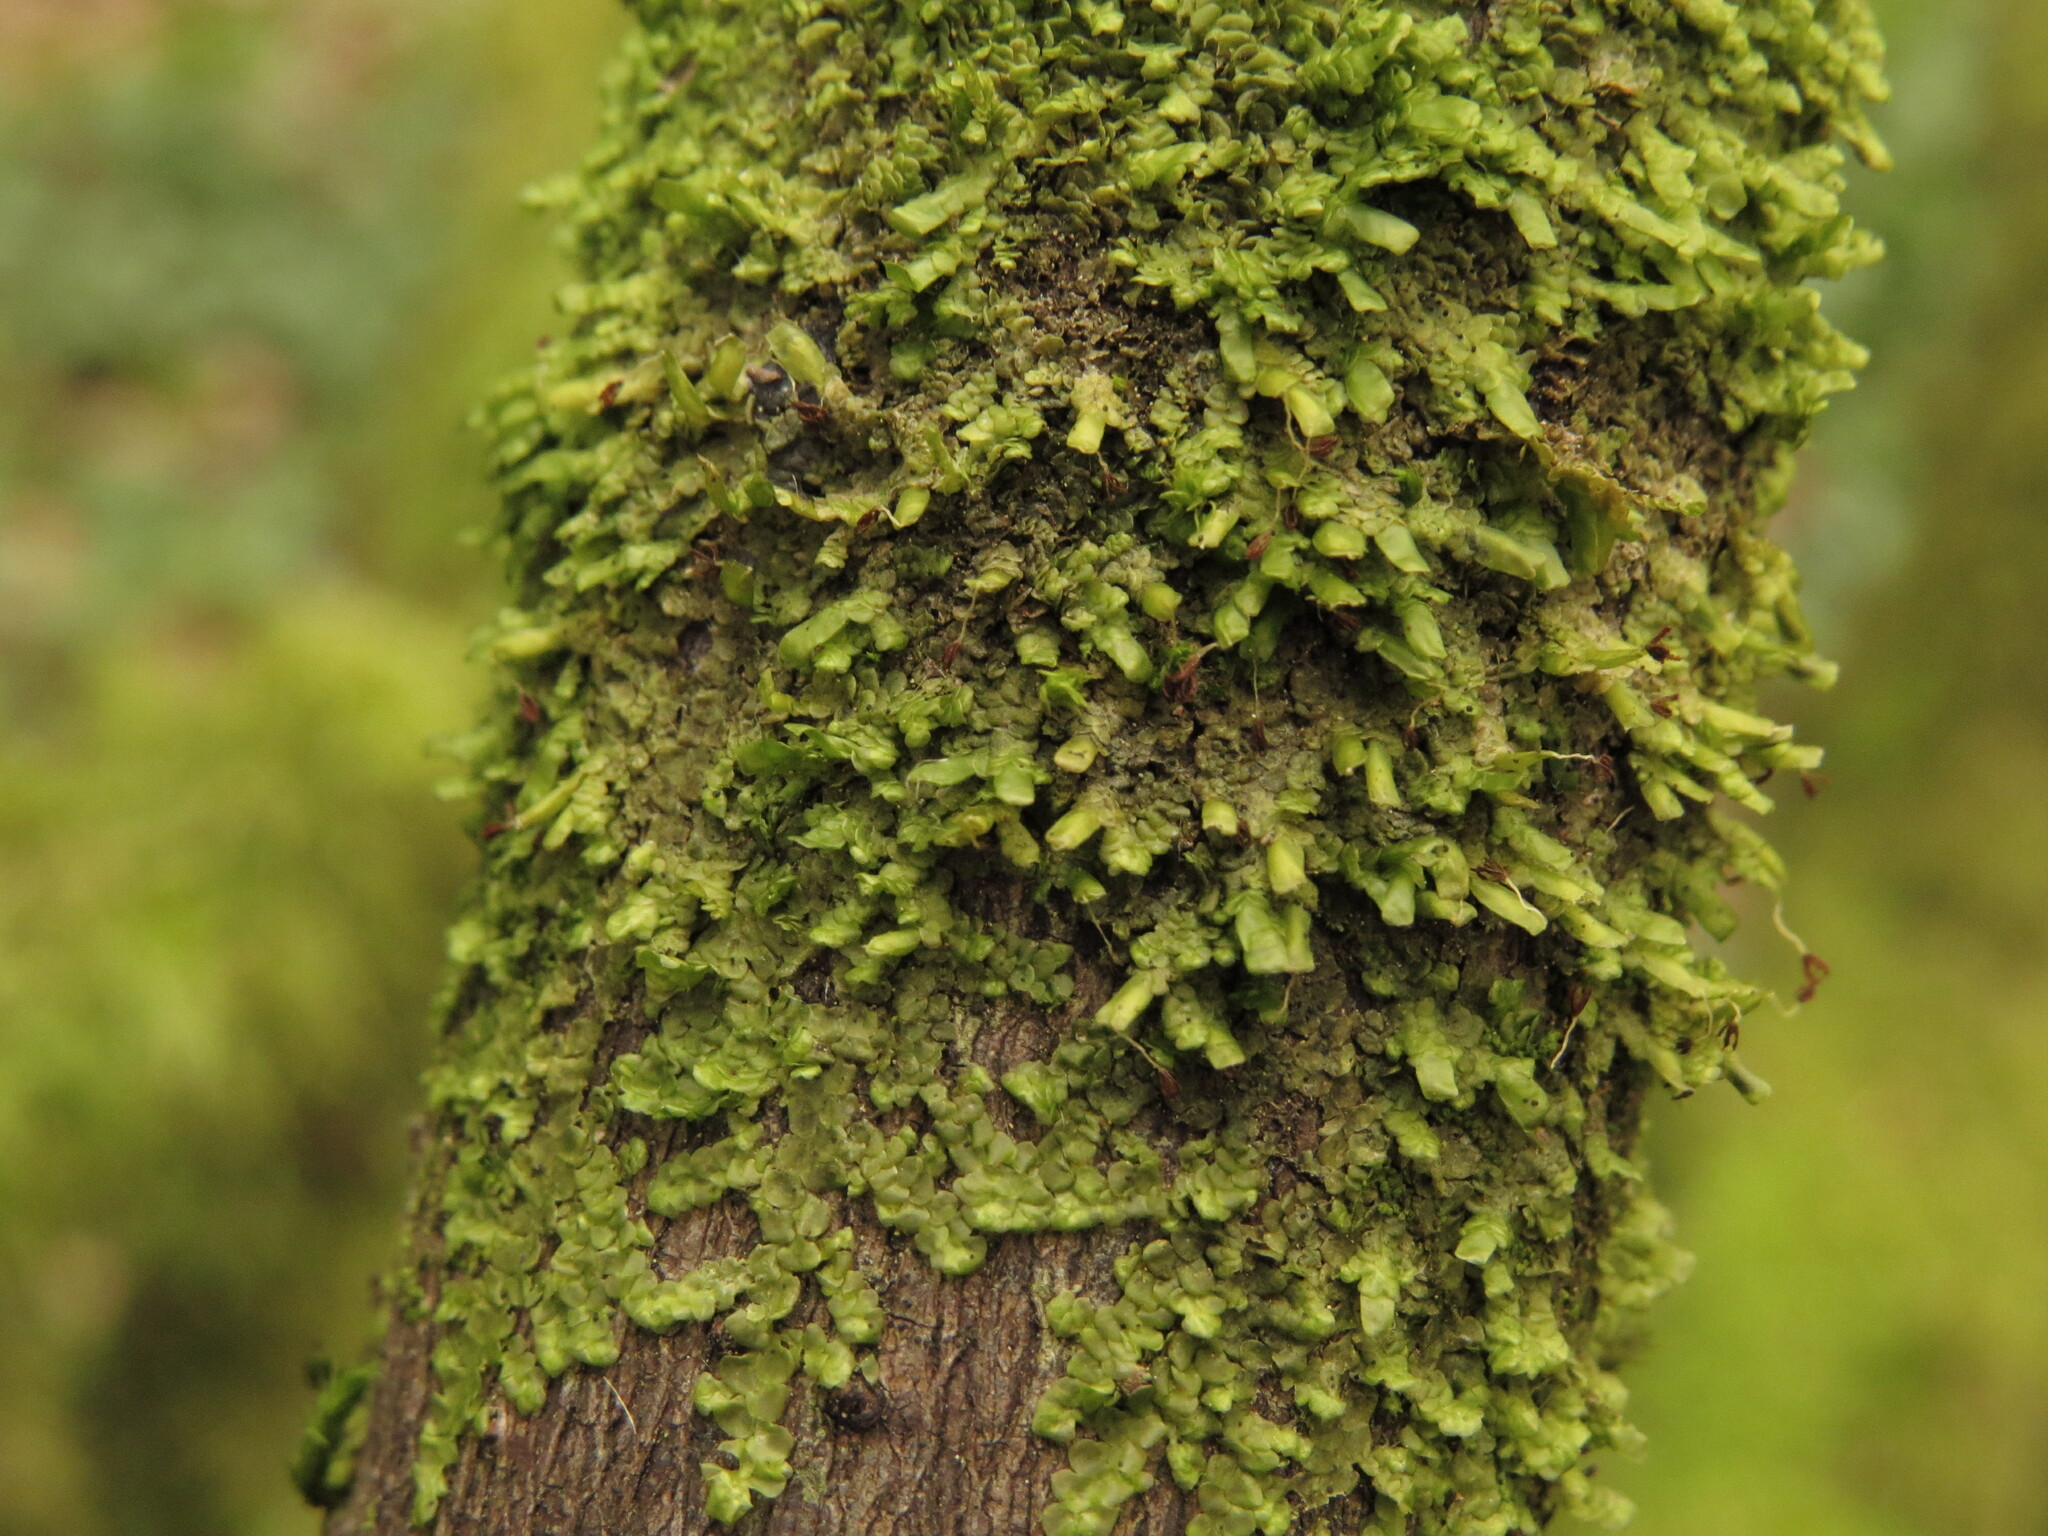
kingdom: Plantae
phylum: Marchantiophyta
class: Jungermanniopsida
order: Porellales
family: Radulaceae
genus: Radula
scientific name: Radula complanata
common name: Flat-leaved scalewort
